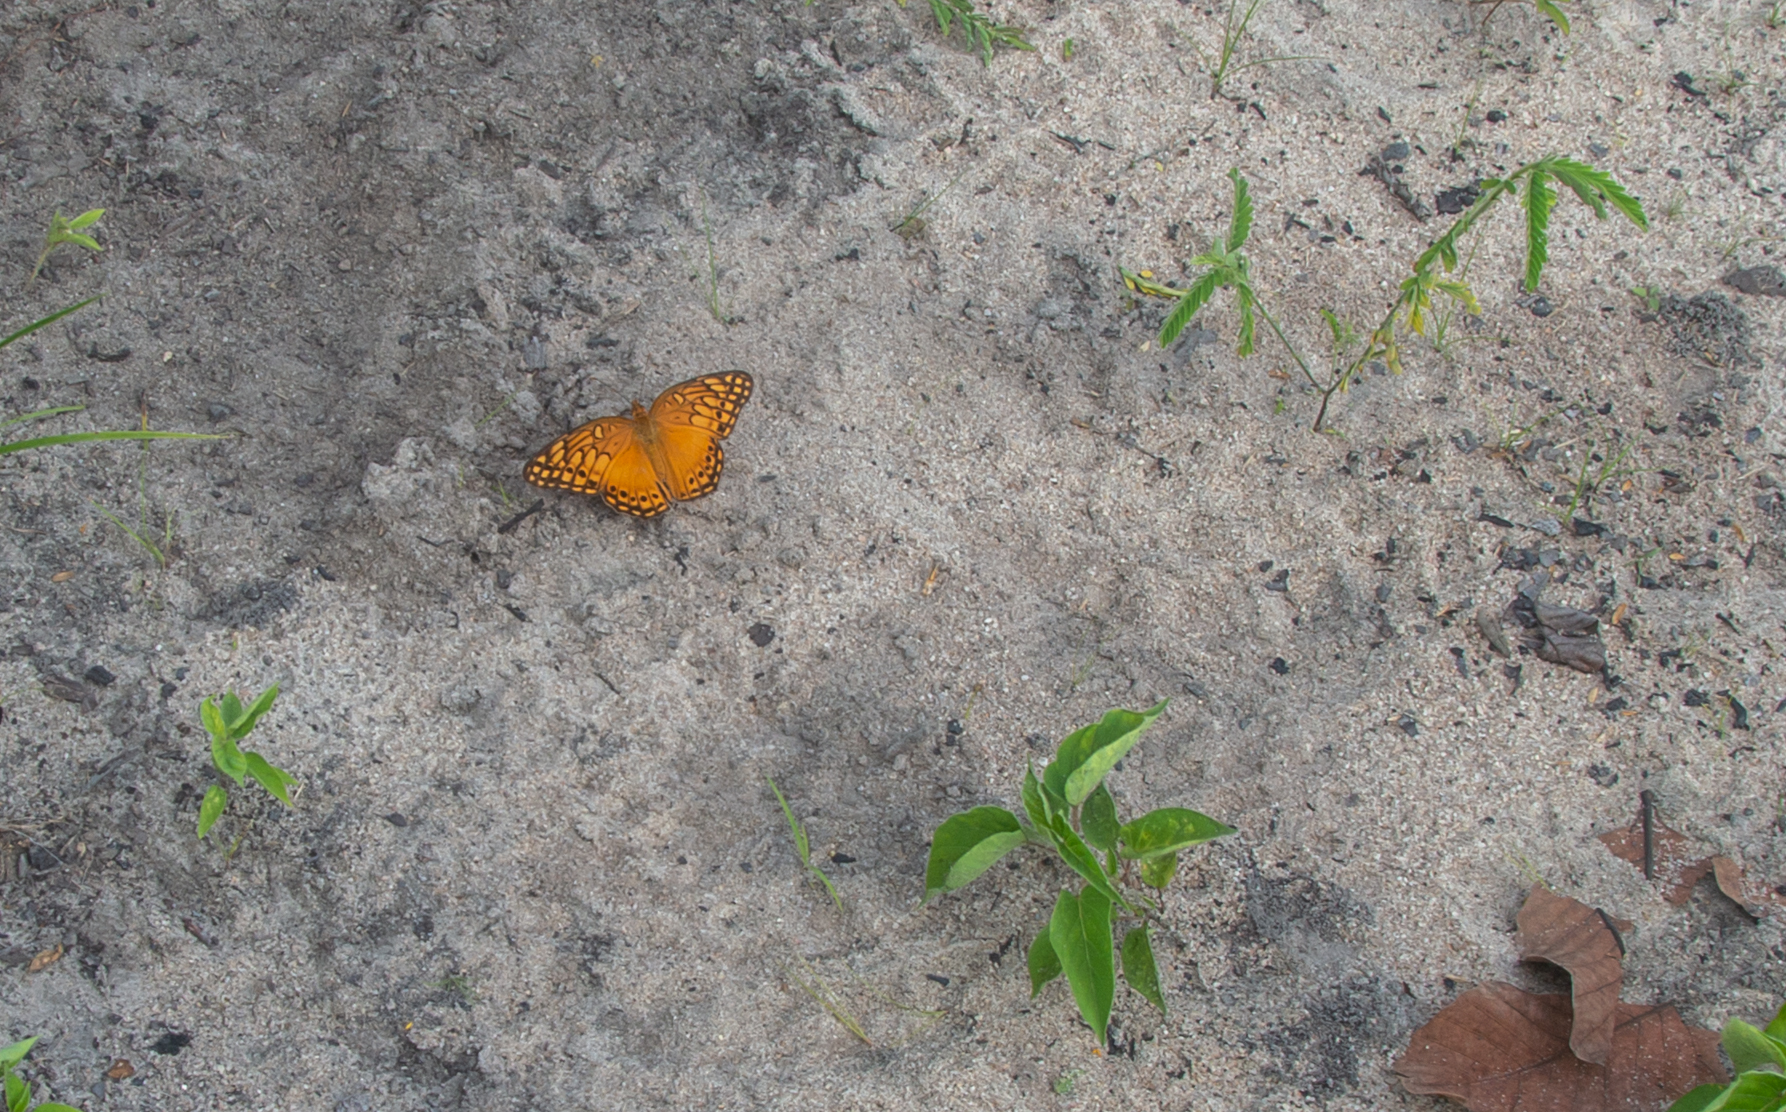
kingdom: Animalia
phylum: Arthropoda
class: Insecta
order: Lepidoptera
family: Nymphalidae
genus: Euptoieta
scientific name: Euptoieta hegesia
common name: Mexican fritillary
